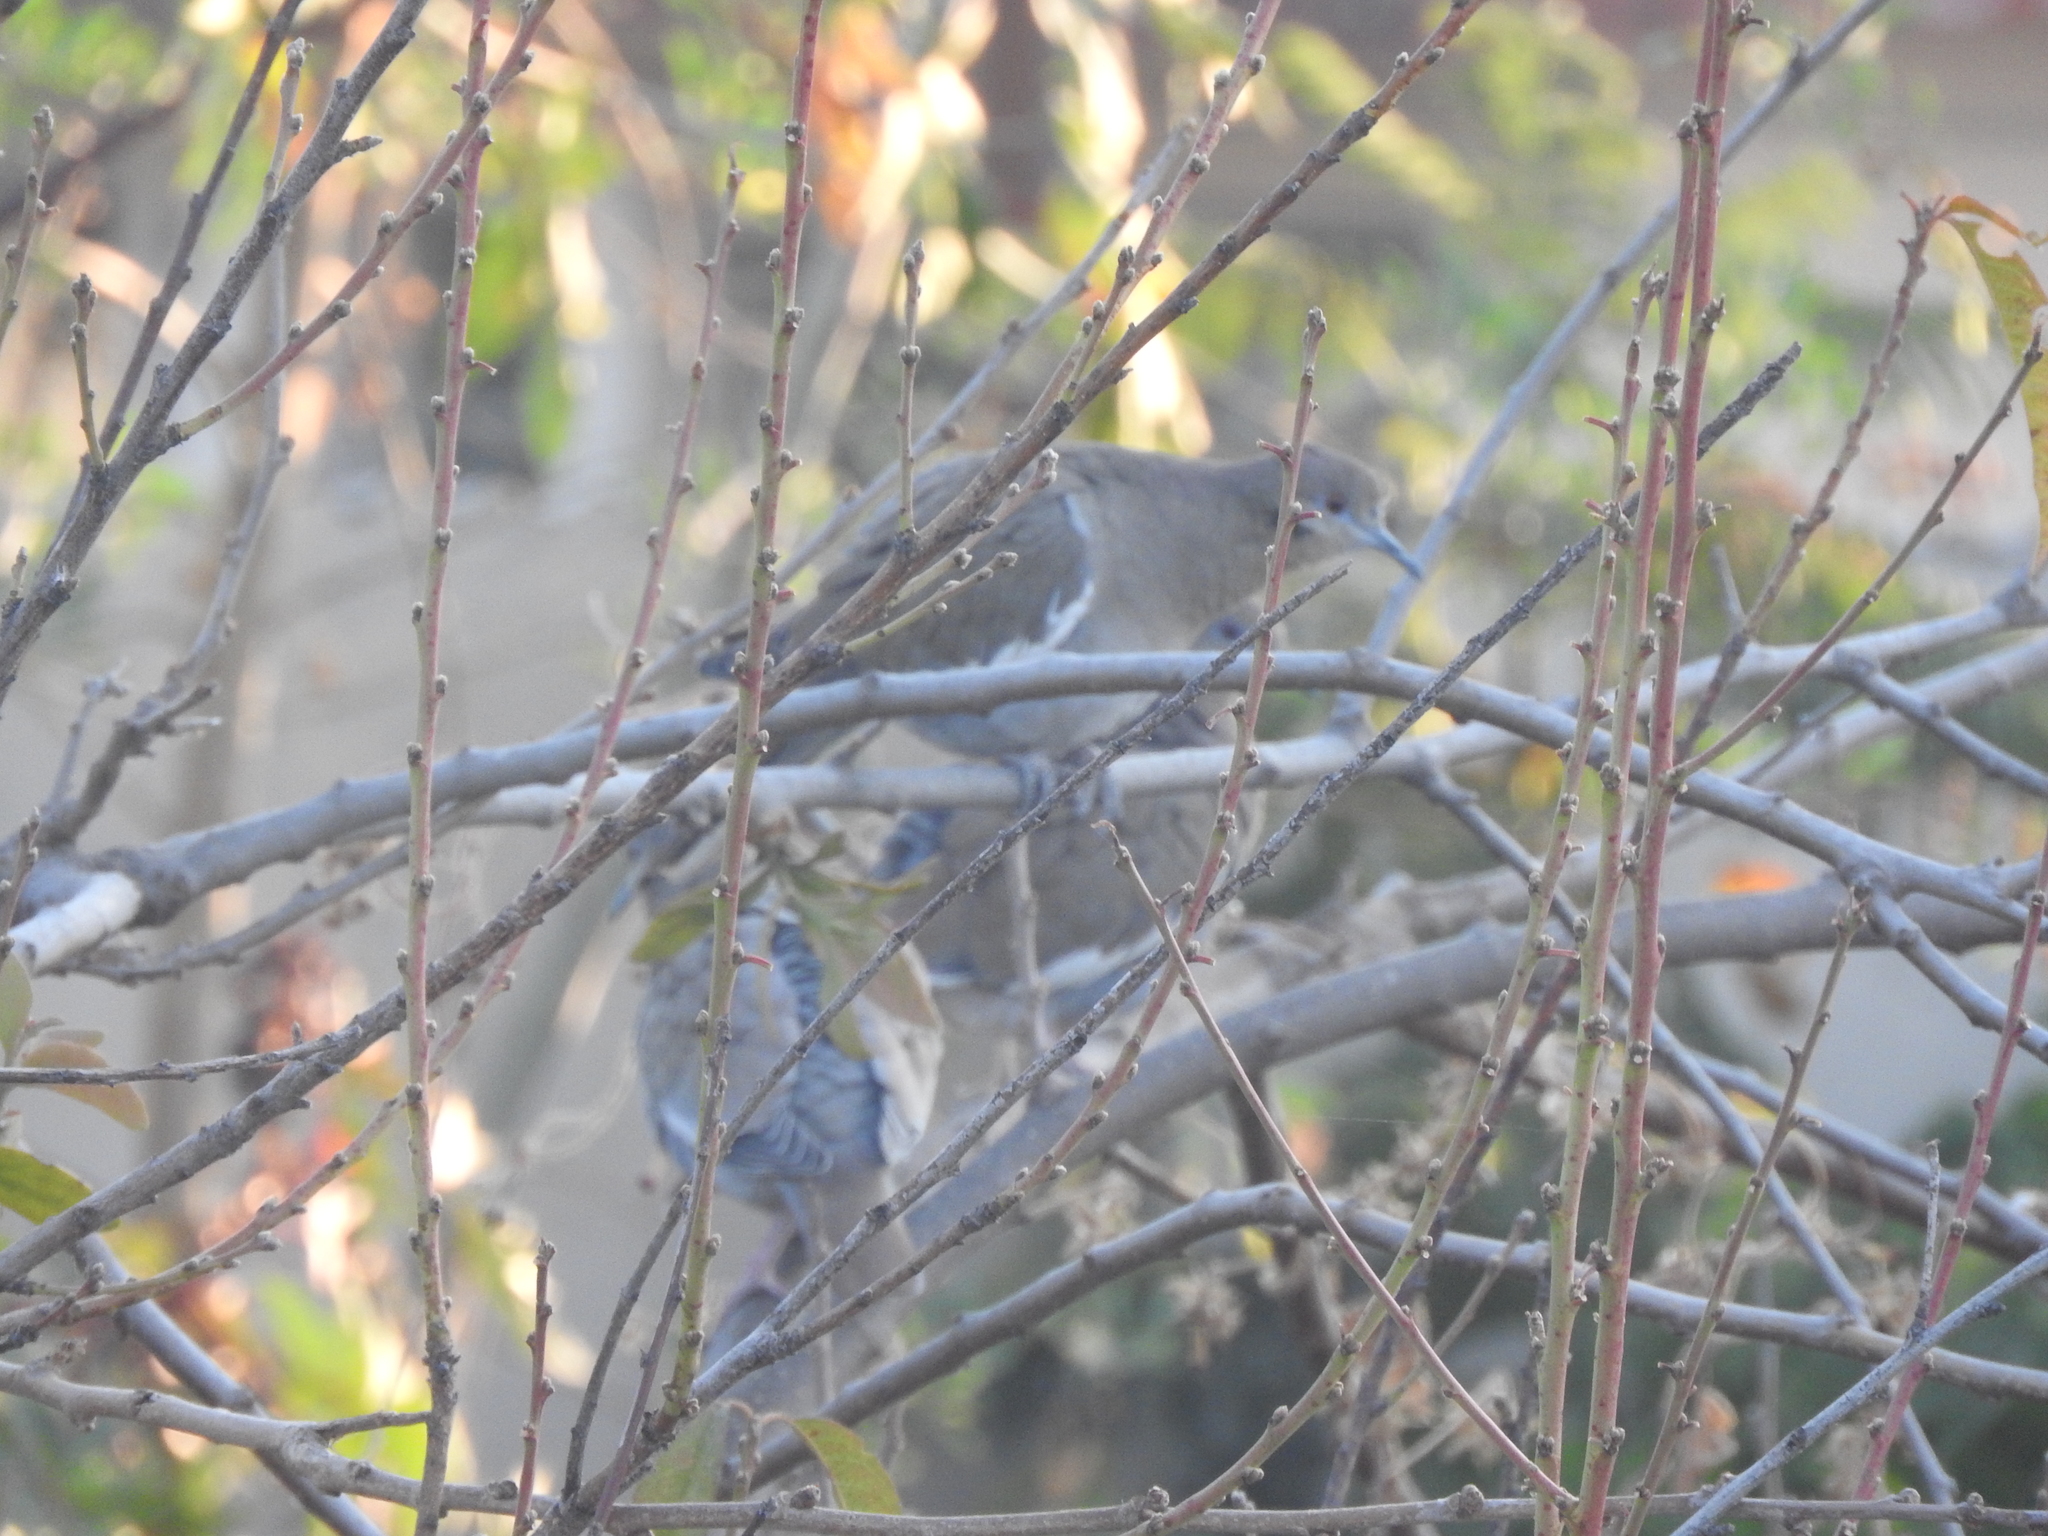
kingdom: Animalia
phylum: Chordata
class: Aves
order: Columbiformes
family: Columbidae
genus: Zenaida
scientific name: Zenaida asiatica
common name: White-winged dove
